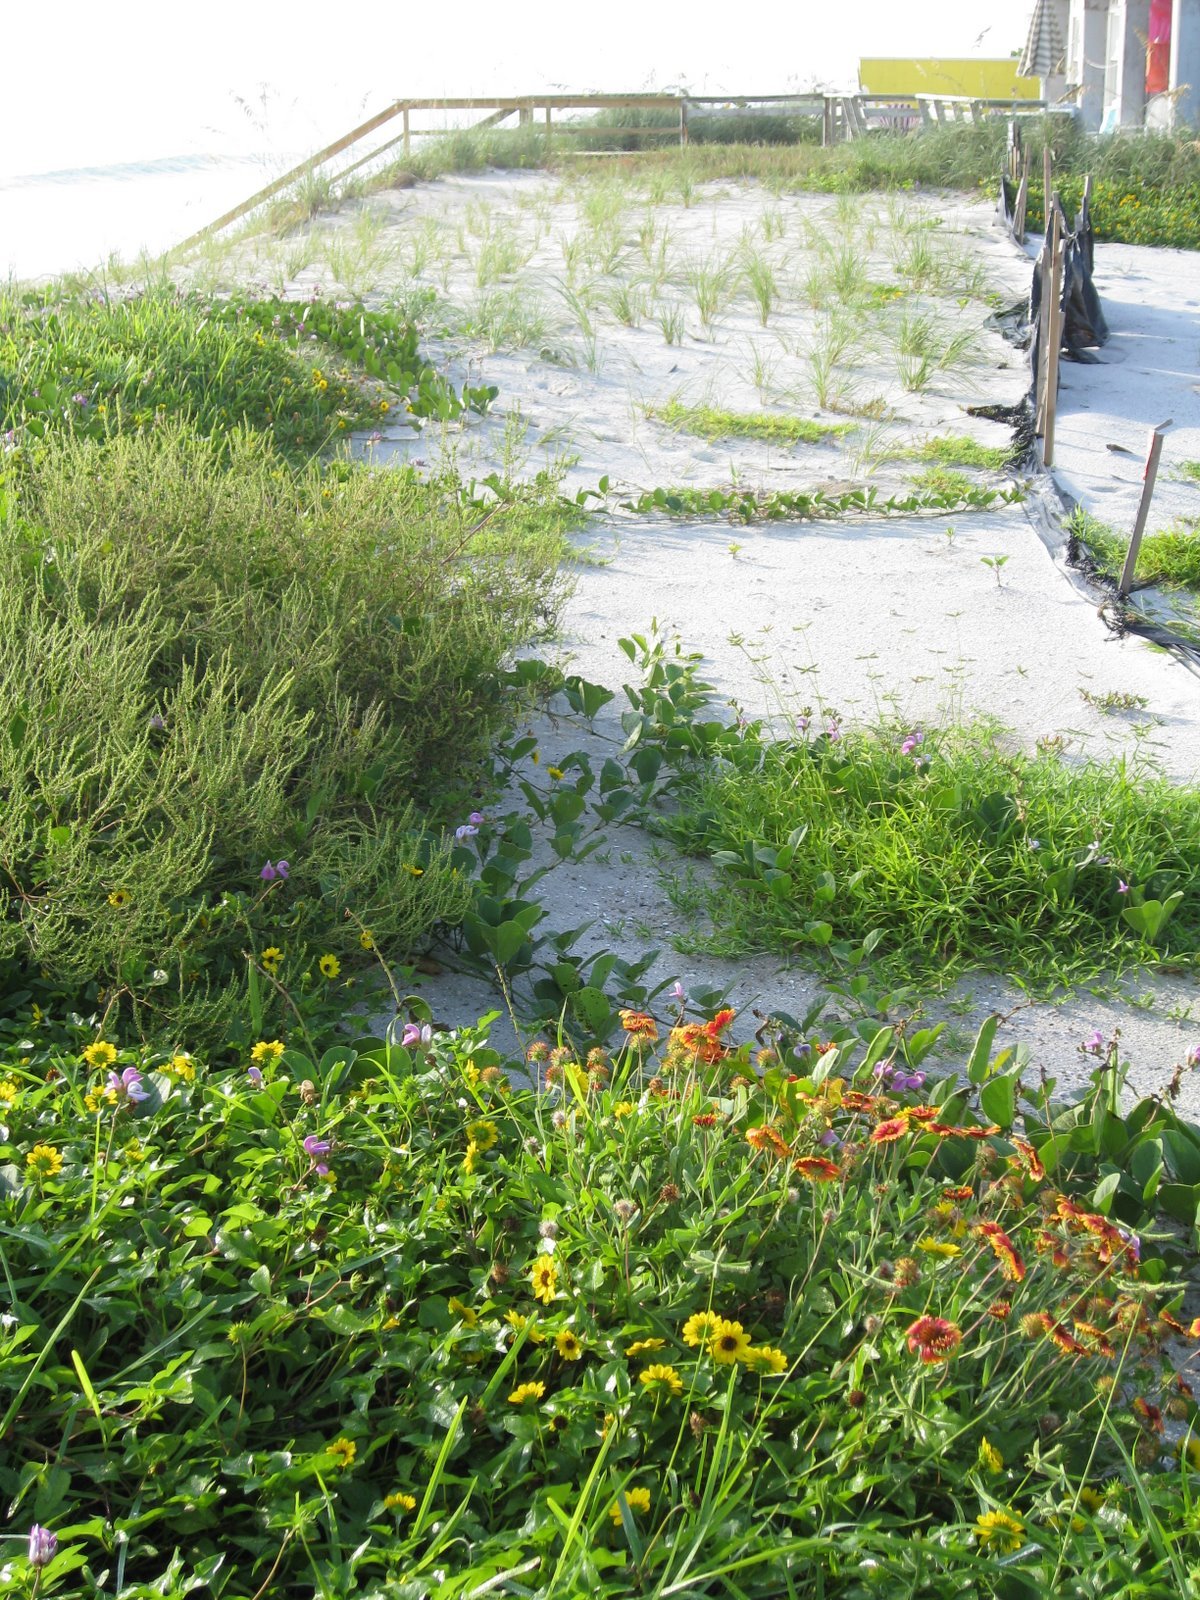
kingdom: Plantae
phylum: Tracheophyta
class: Magnoliopsida
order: Solanales
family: Convolvulaceae
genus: Ipomoea
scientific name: Ipomoea pes-caprae
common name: Beach morning glory
